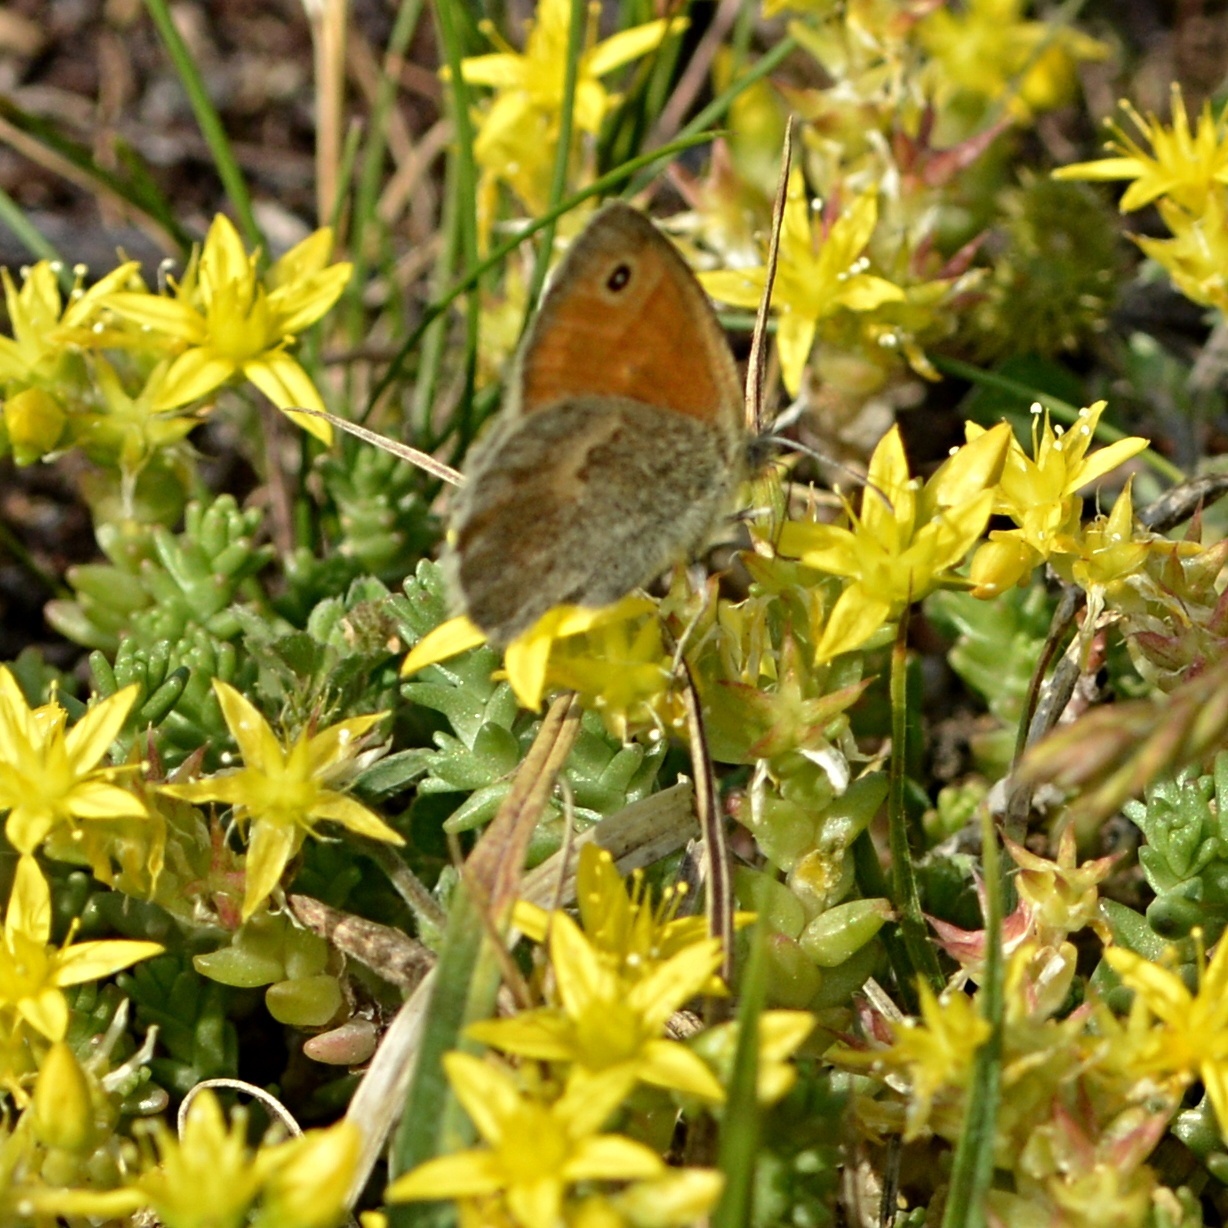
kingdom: Animalia
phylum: Arthropoda
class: Insecta
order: Lepidoptera
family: Nymphalidae
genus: Coenonympha
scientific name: Coenonympha pamphilus
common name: Small heath
